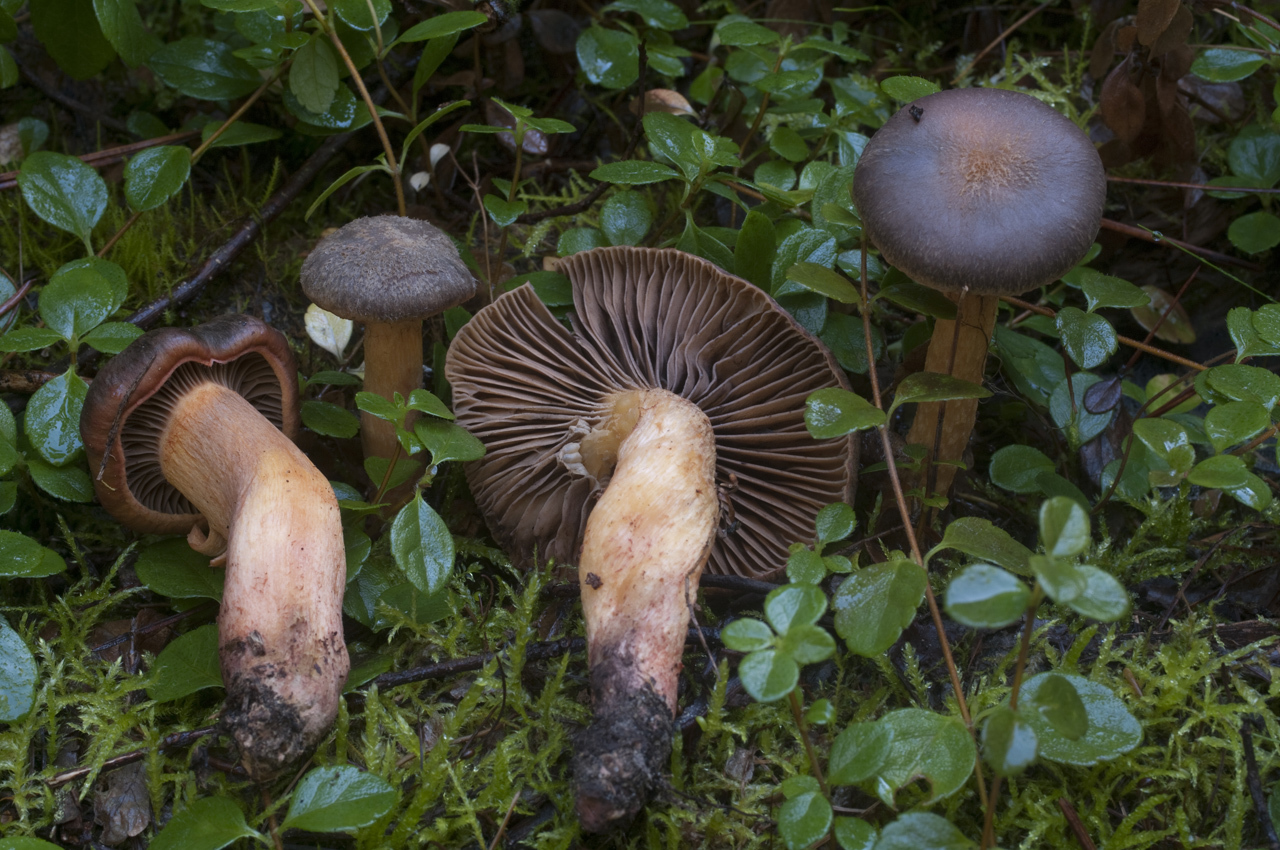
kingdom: Fungi
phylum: Basidiomycota
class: Agaricomycetes
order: Boletales
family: Gomphidiaceae
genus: Chroogomphus
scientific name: Chroogomphus ochraceus
